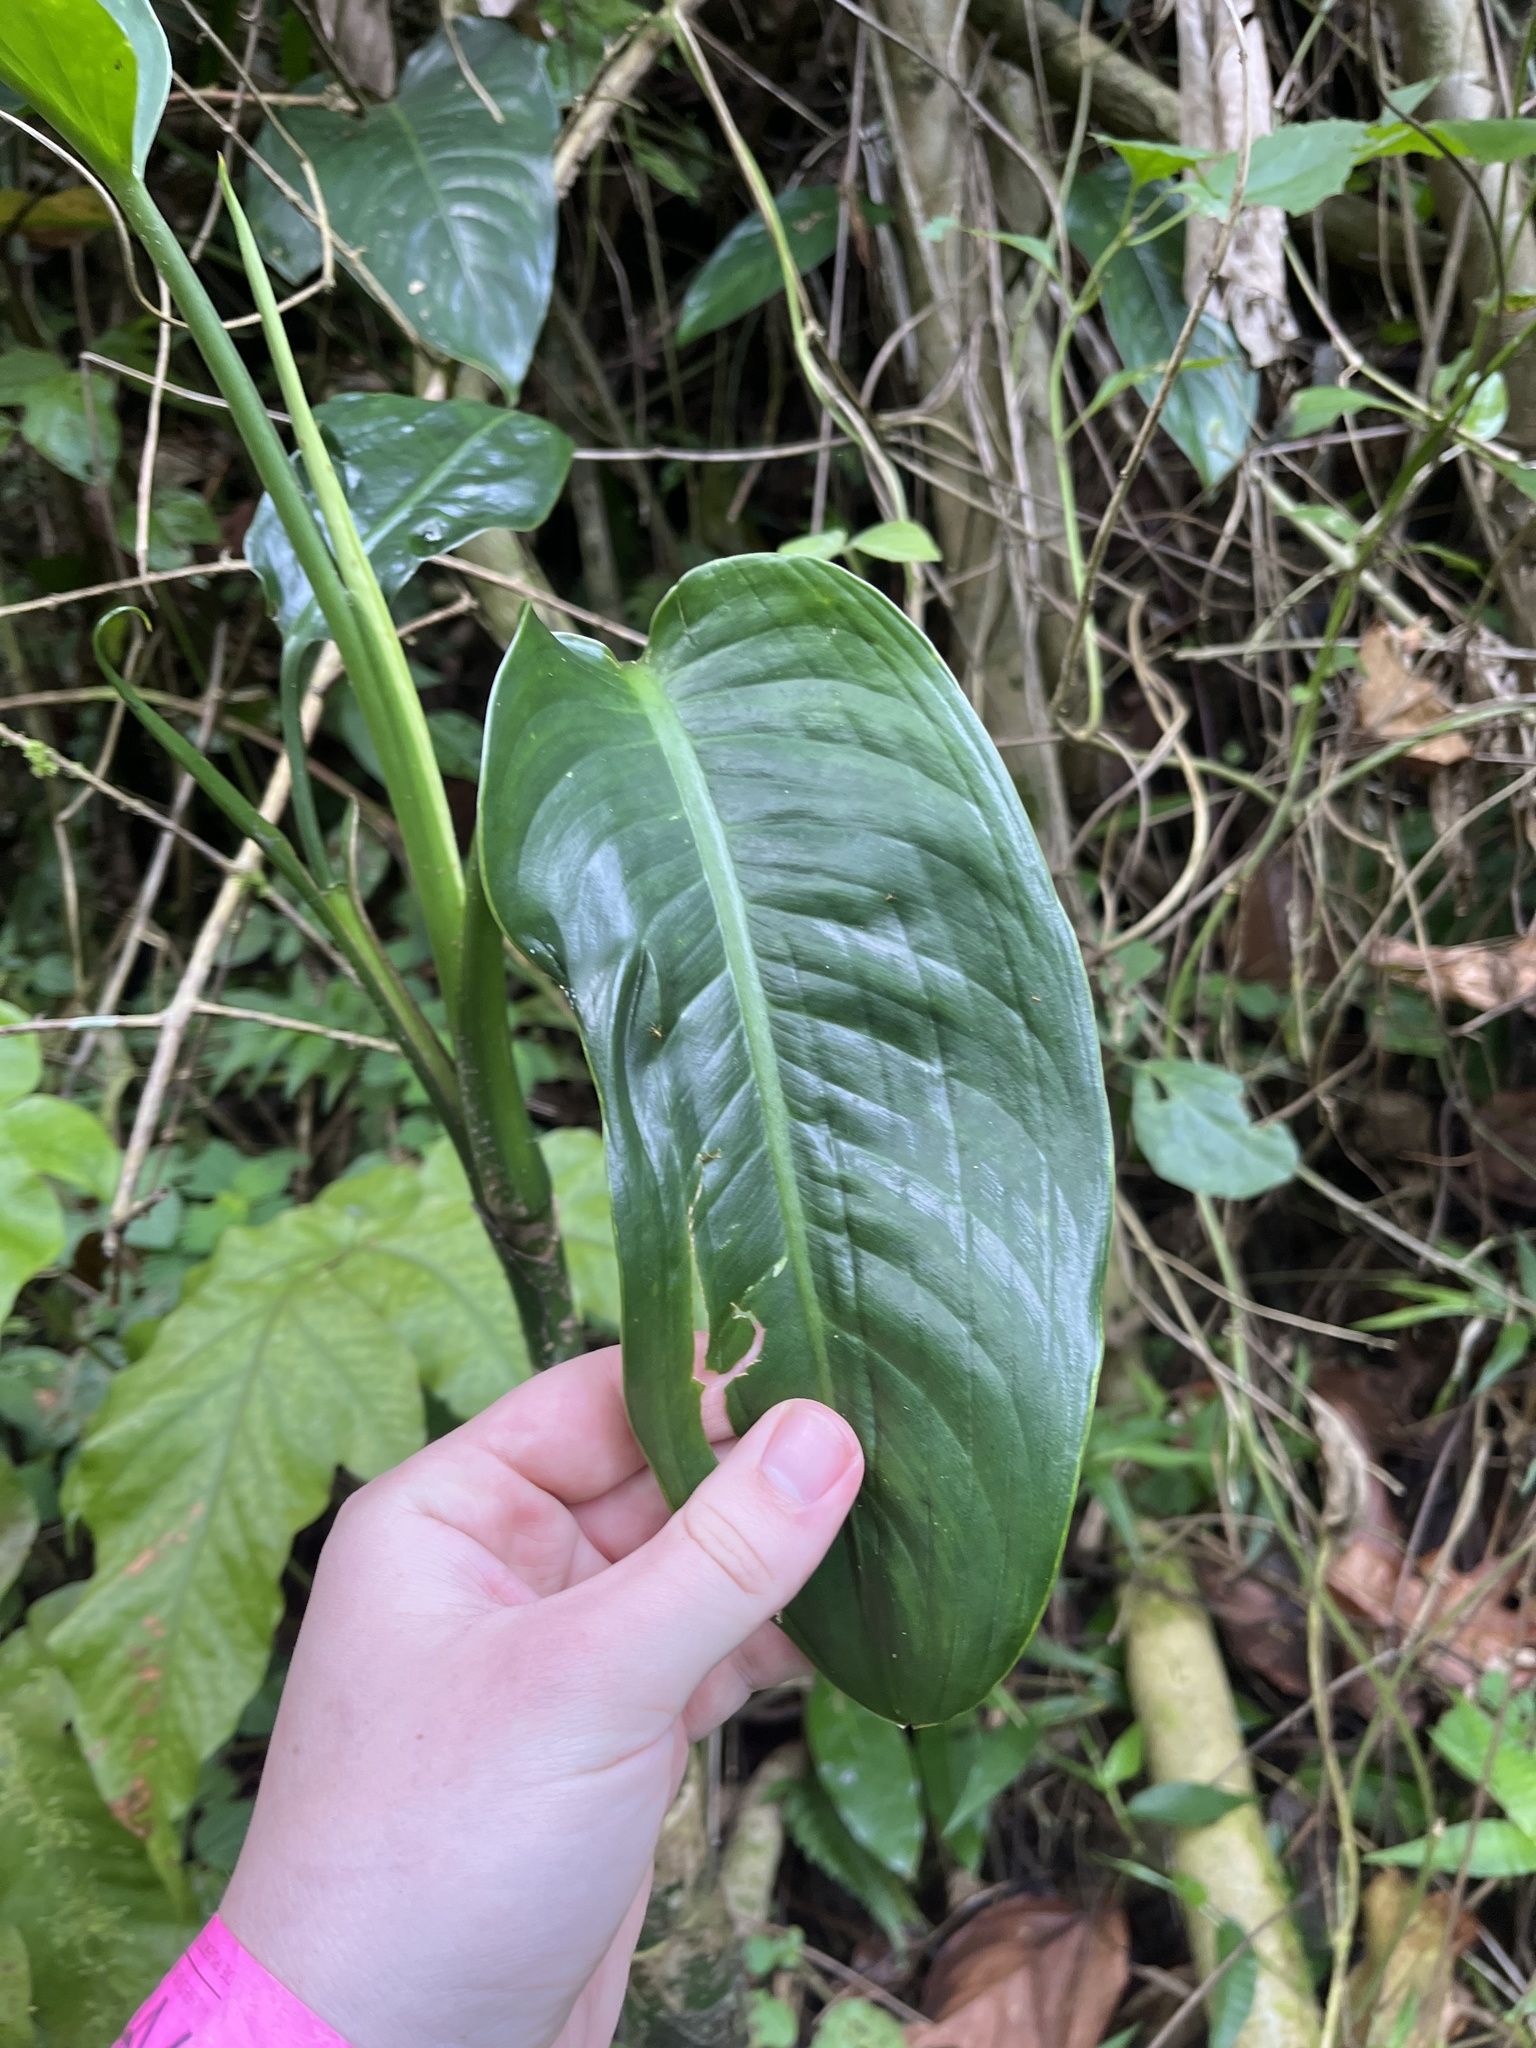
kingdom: Plantae
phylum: Tracheophyta
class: Liliopsida
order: Alismatales
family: Araceae
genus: Dieffenbachia
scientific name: Dieffenbachia seguine
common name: Dumbcane
